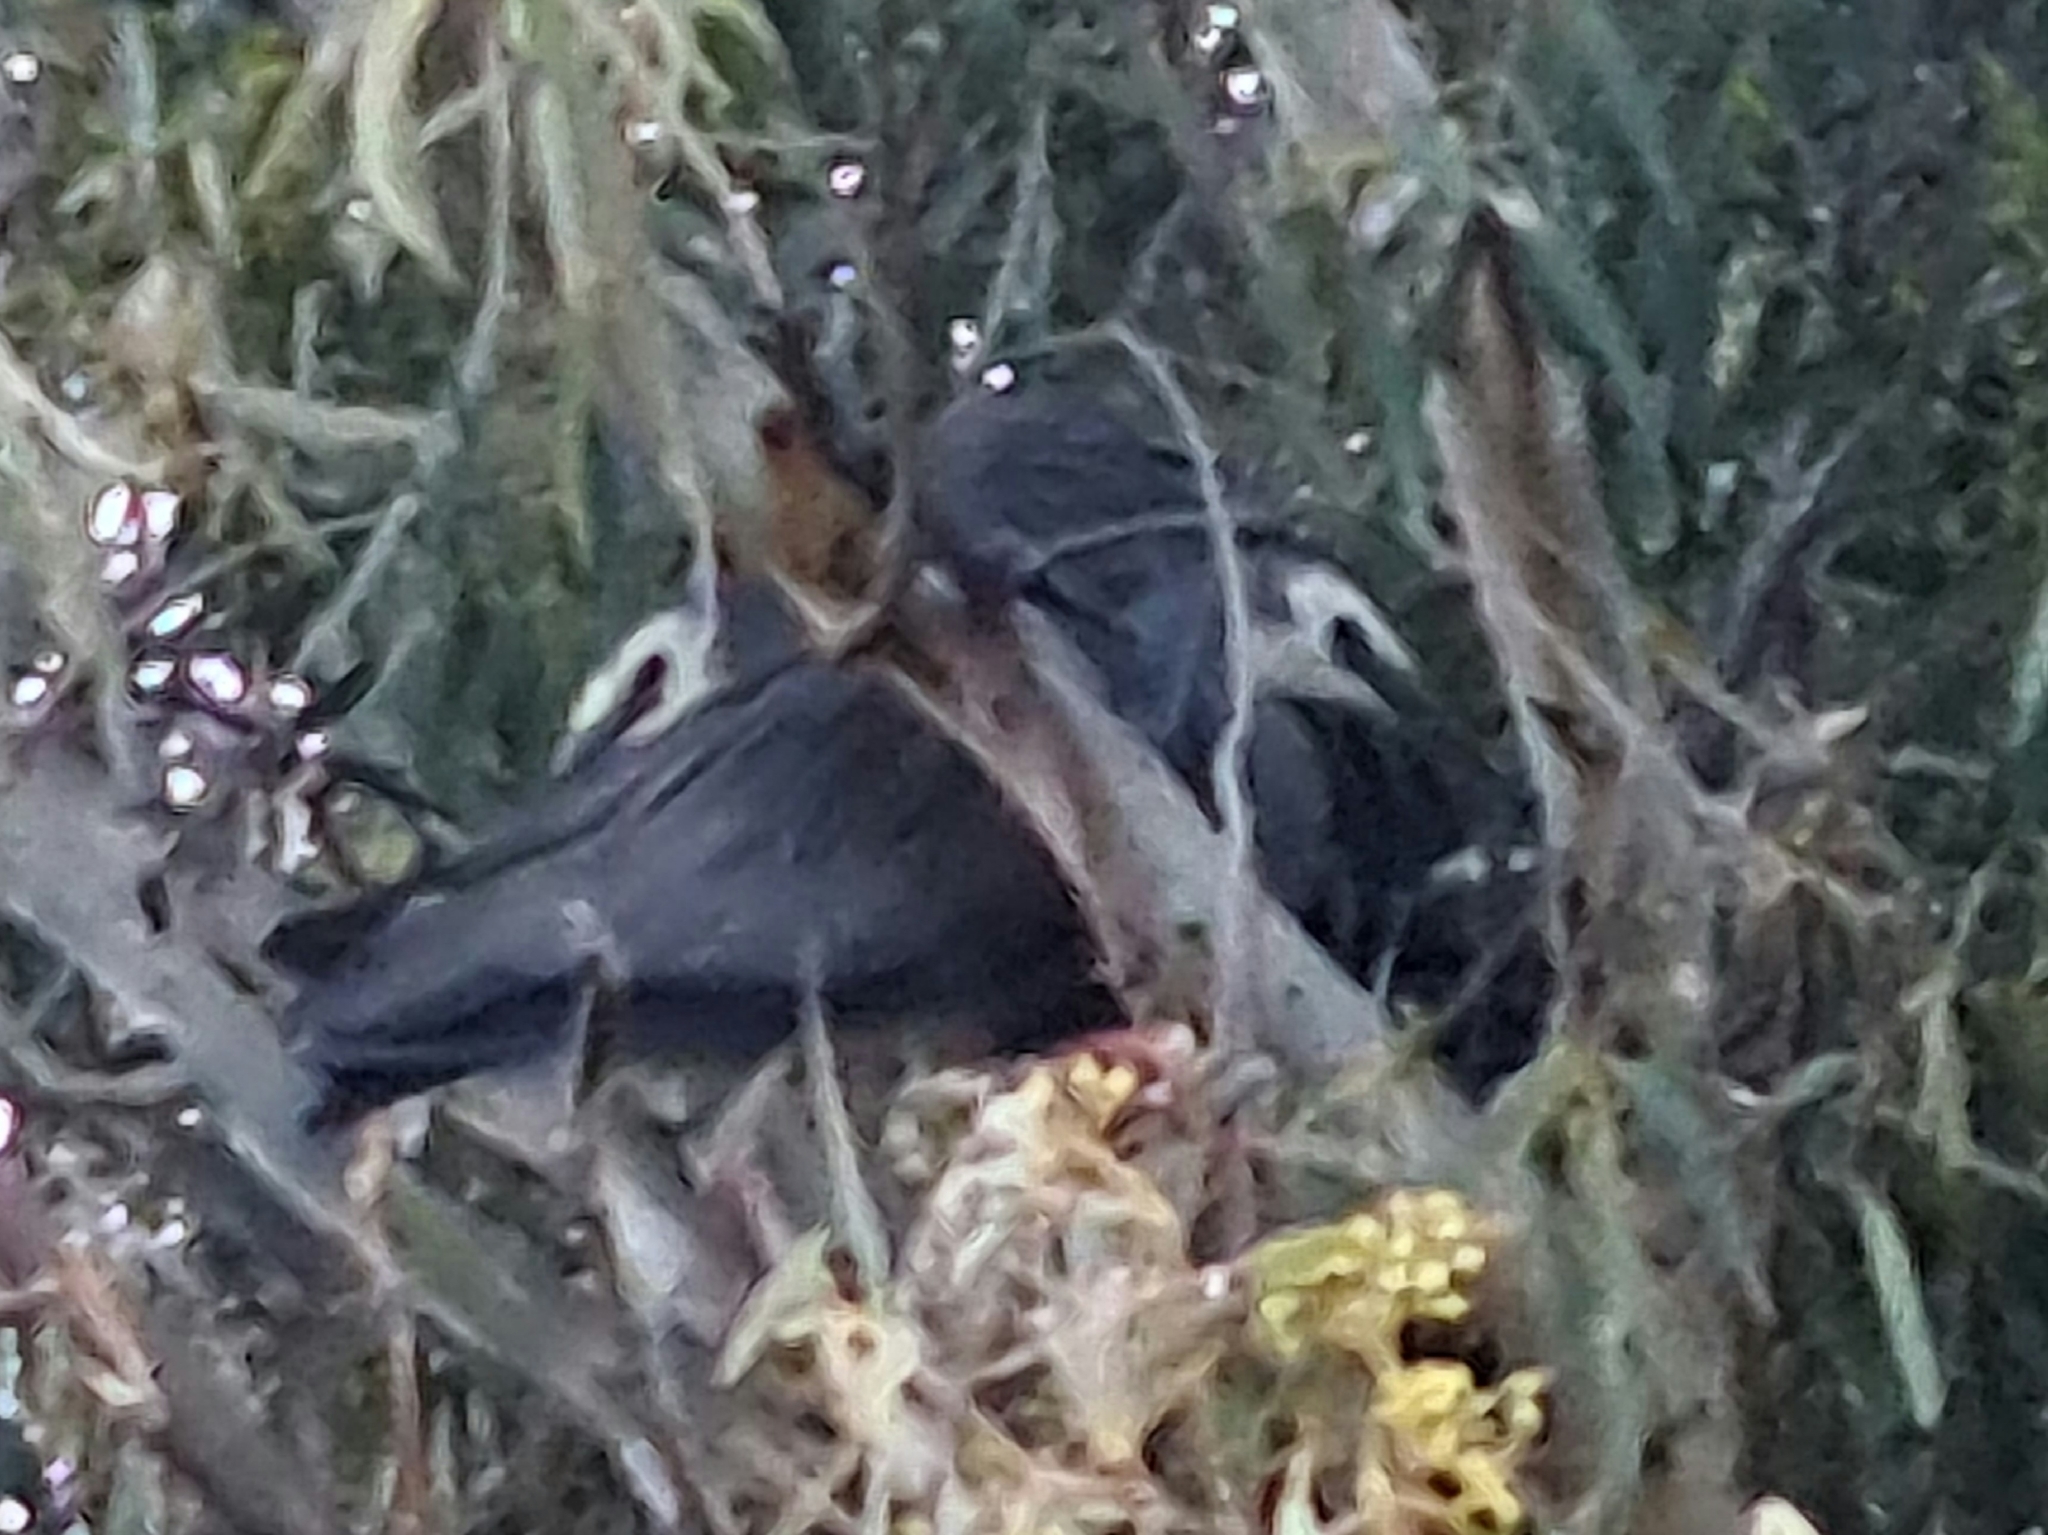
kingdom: Animalia
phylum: Chordata
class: Aves
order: Pelecaniformes
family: Ardeidae
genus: Egretta
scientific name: Egretta novaehollandiae
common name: White-faced heron
